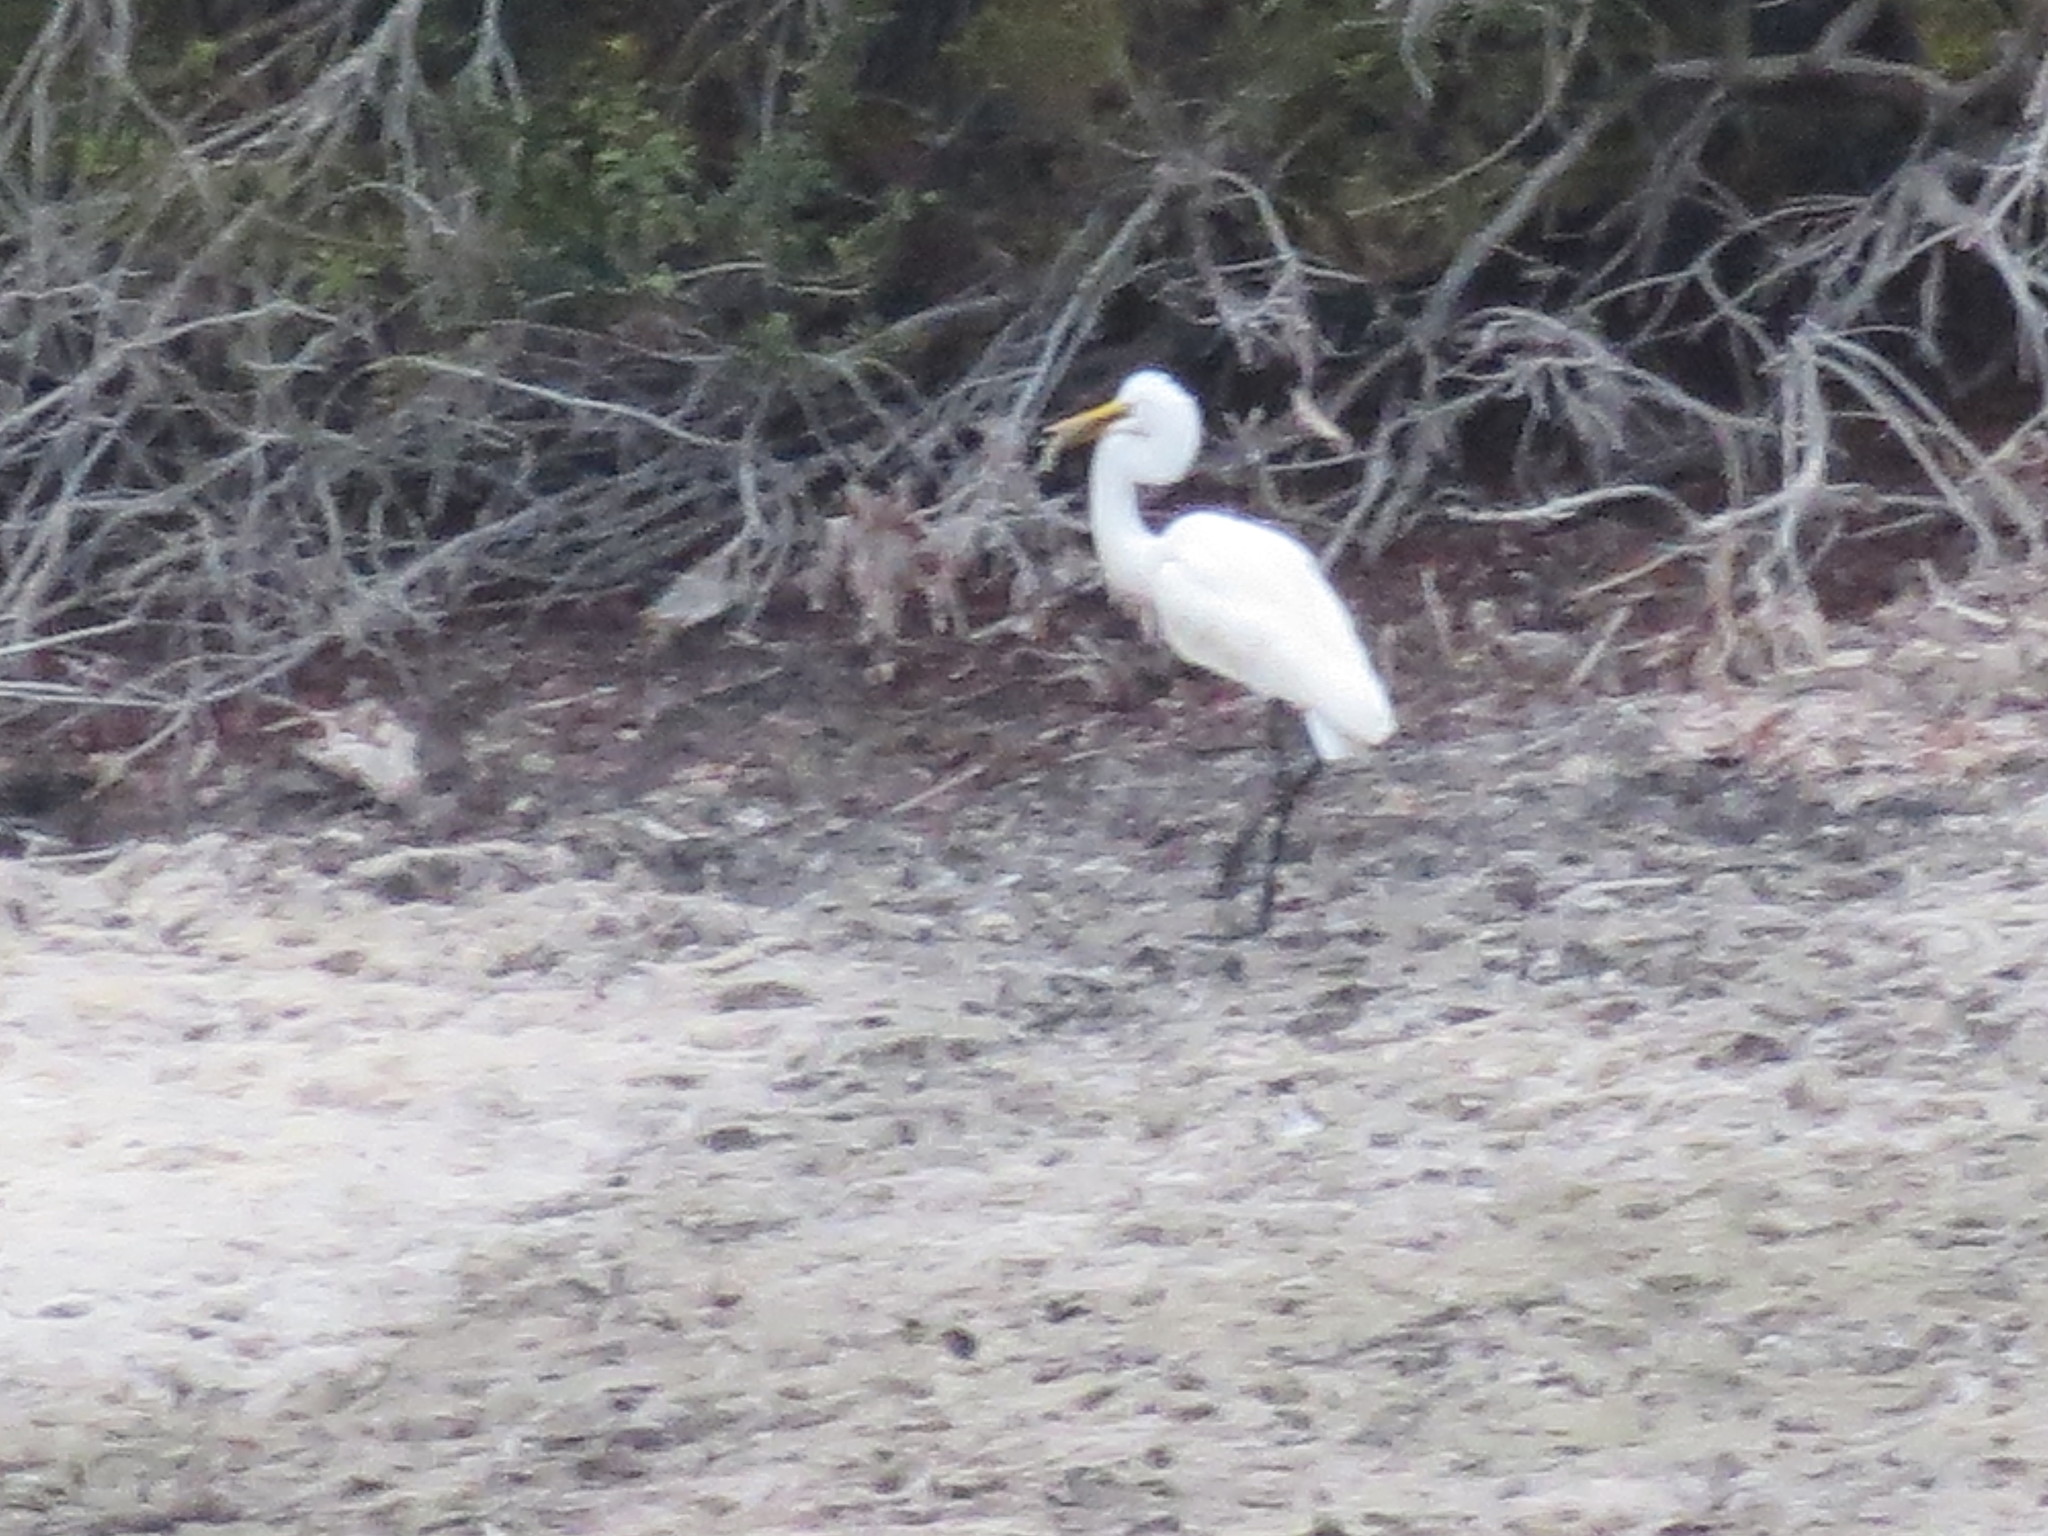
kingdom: Animalia
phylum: Chordata
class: Aves
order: Pelecaniformes
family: Ardeidae
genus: Ardea
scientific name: Ardea alba
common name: Great egret
